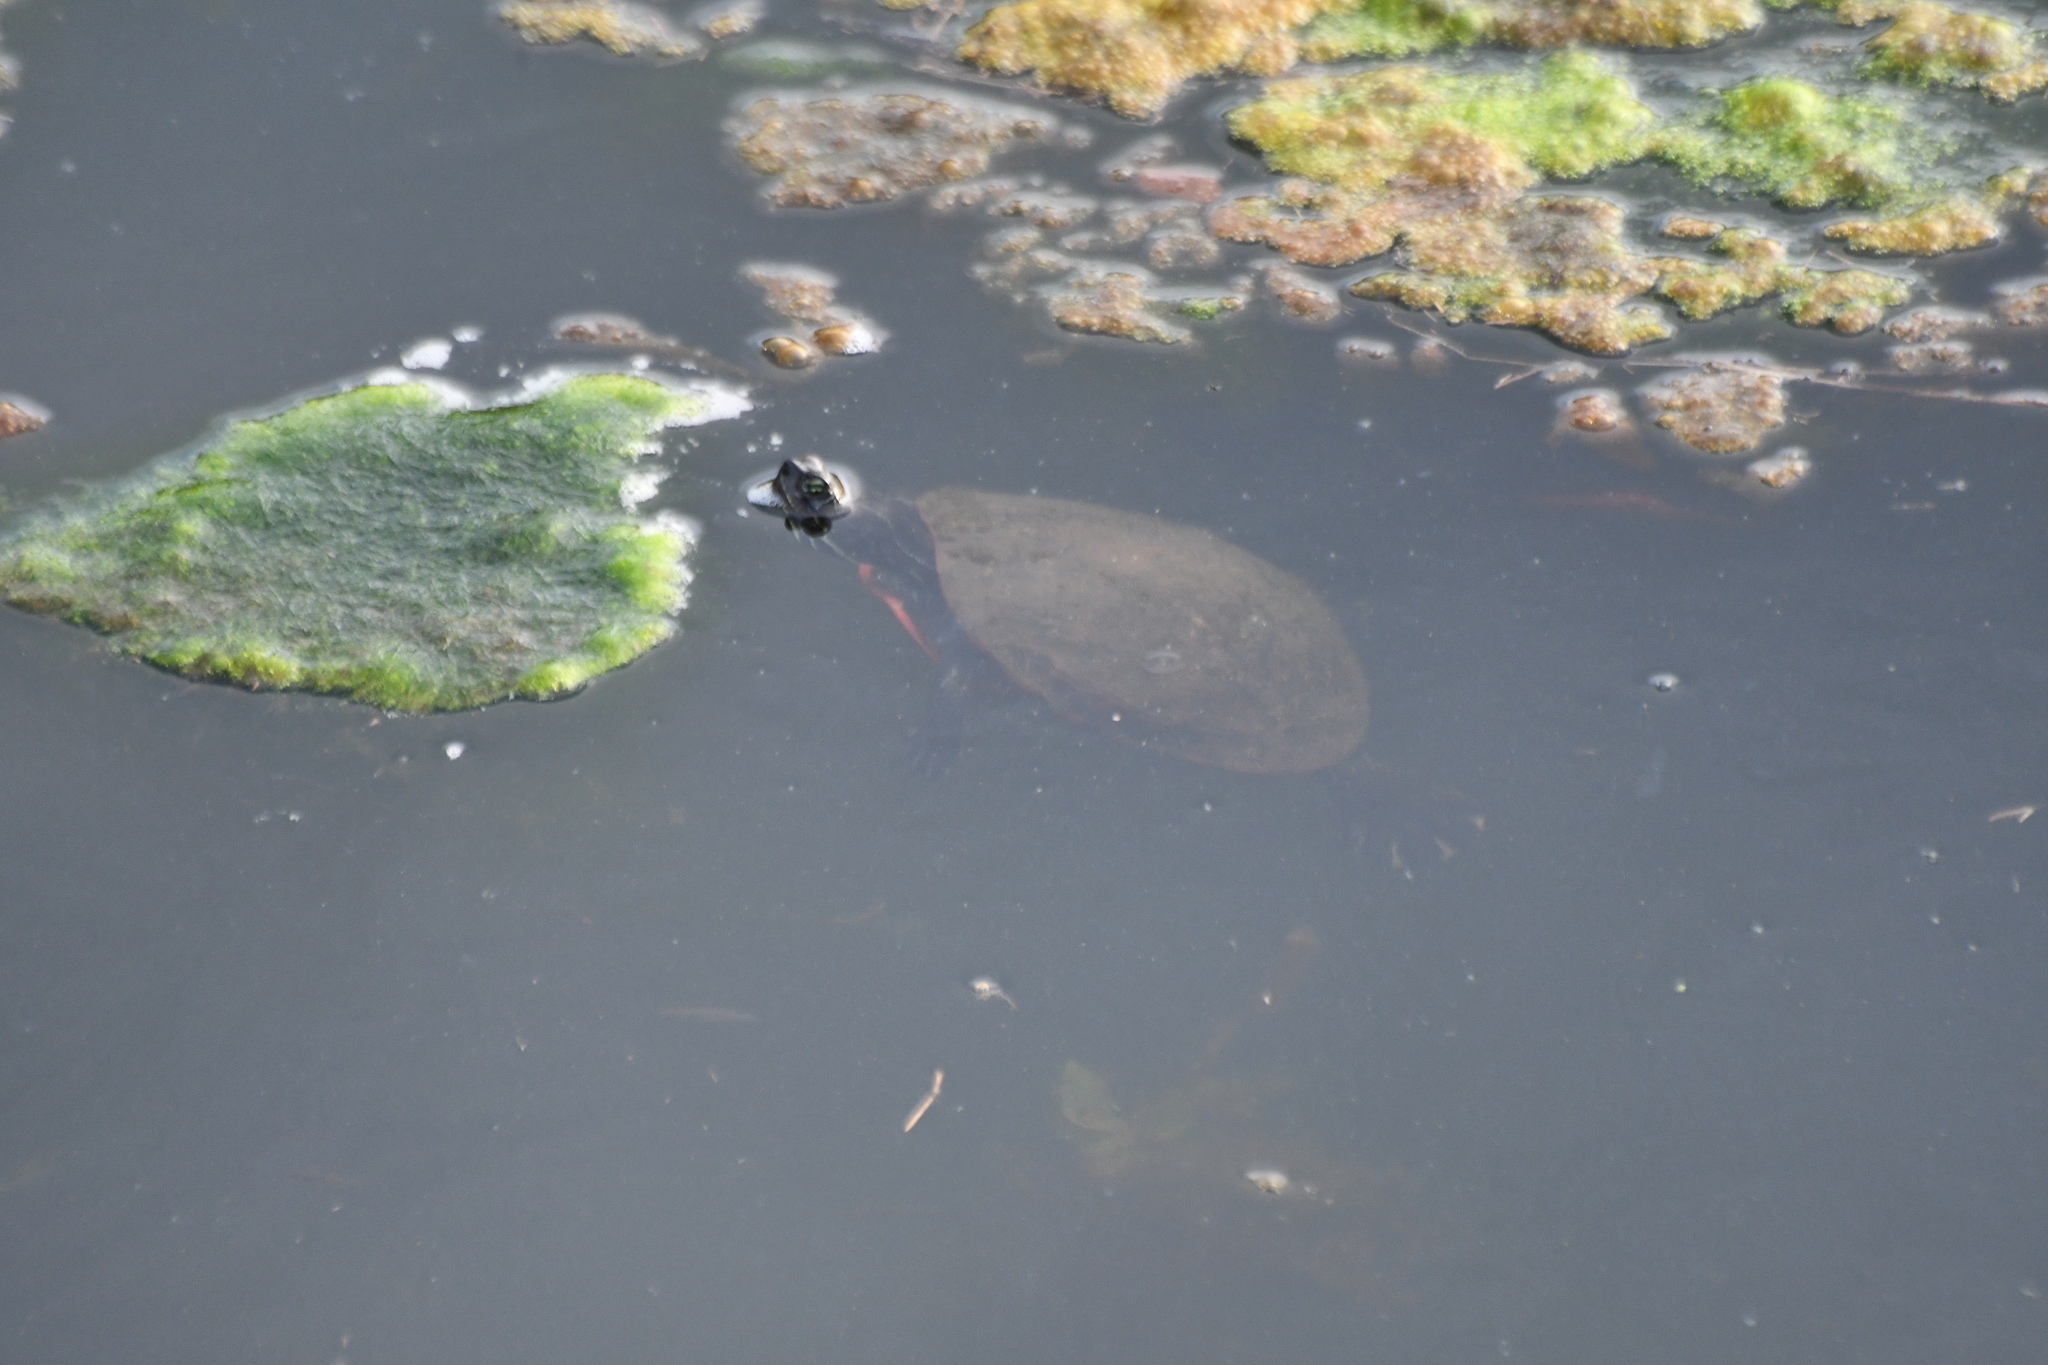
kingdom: Animalia
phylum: Chordata
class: Testudines
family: Emydidae
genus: Pseudemys
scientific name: Pseudemys rubriventris
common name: American red-bellied turtle
